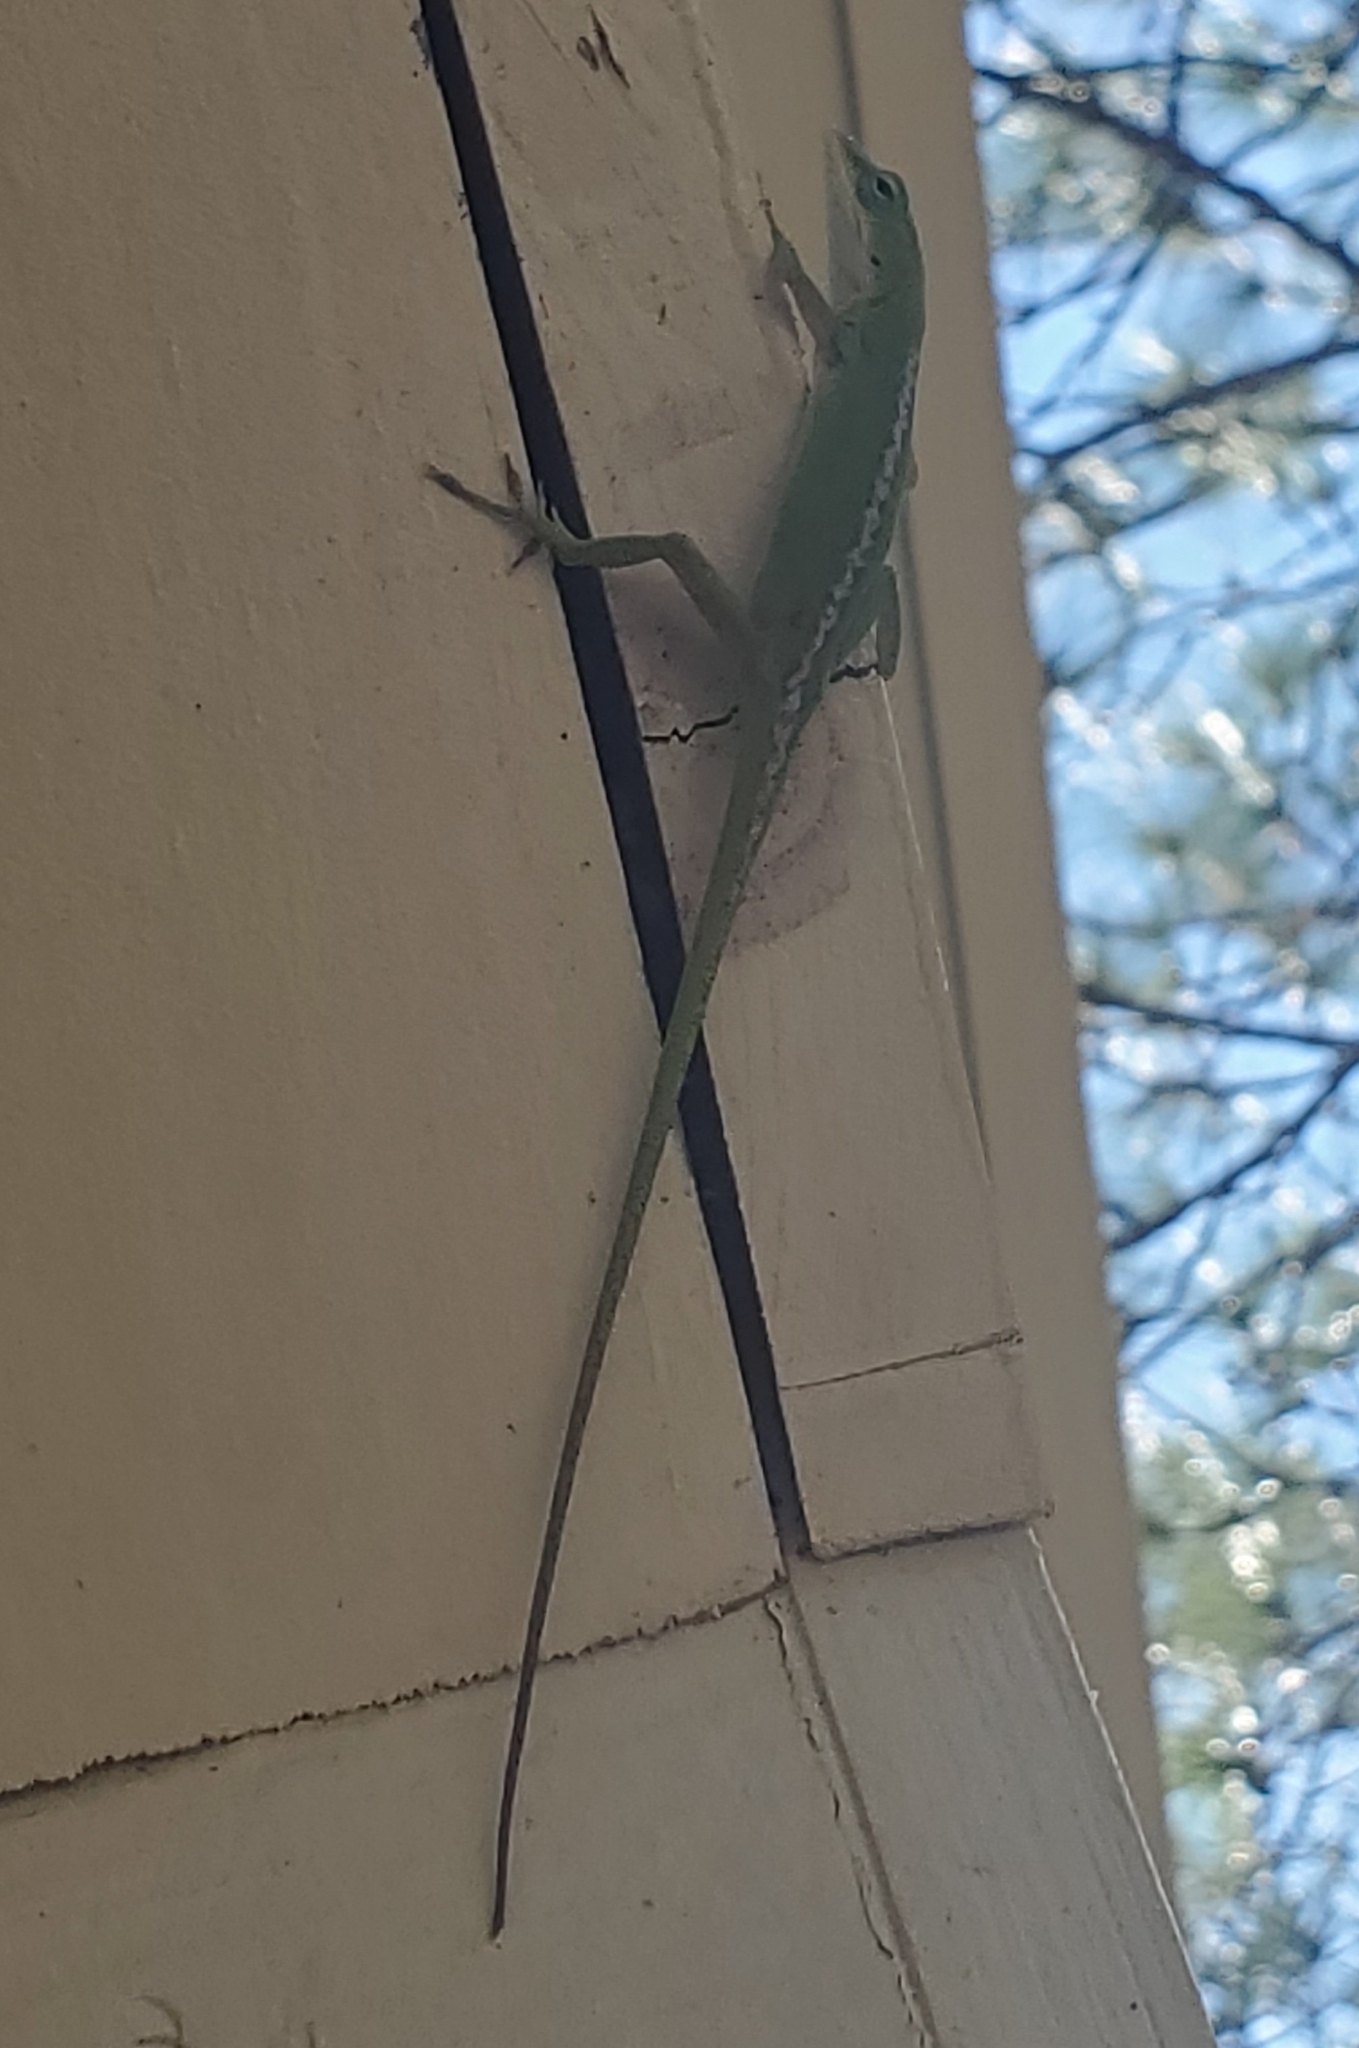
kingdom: Animalia
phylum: Chordata
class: Squamata
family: Dactyloidae
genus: Anolis
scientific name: Anolis carolinensis
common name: Green anole
